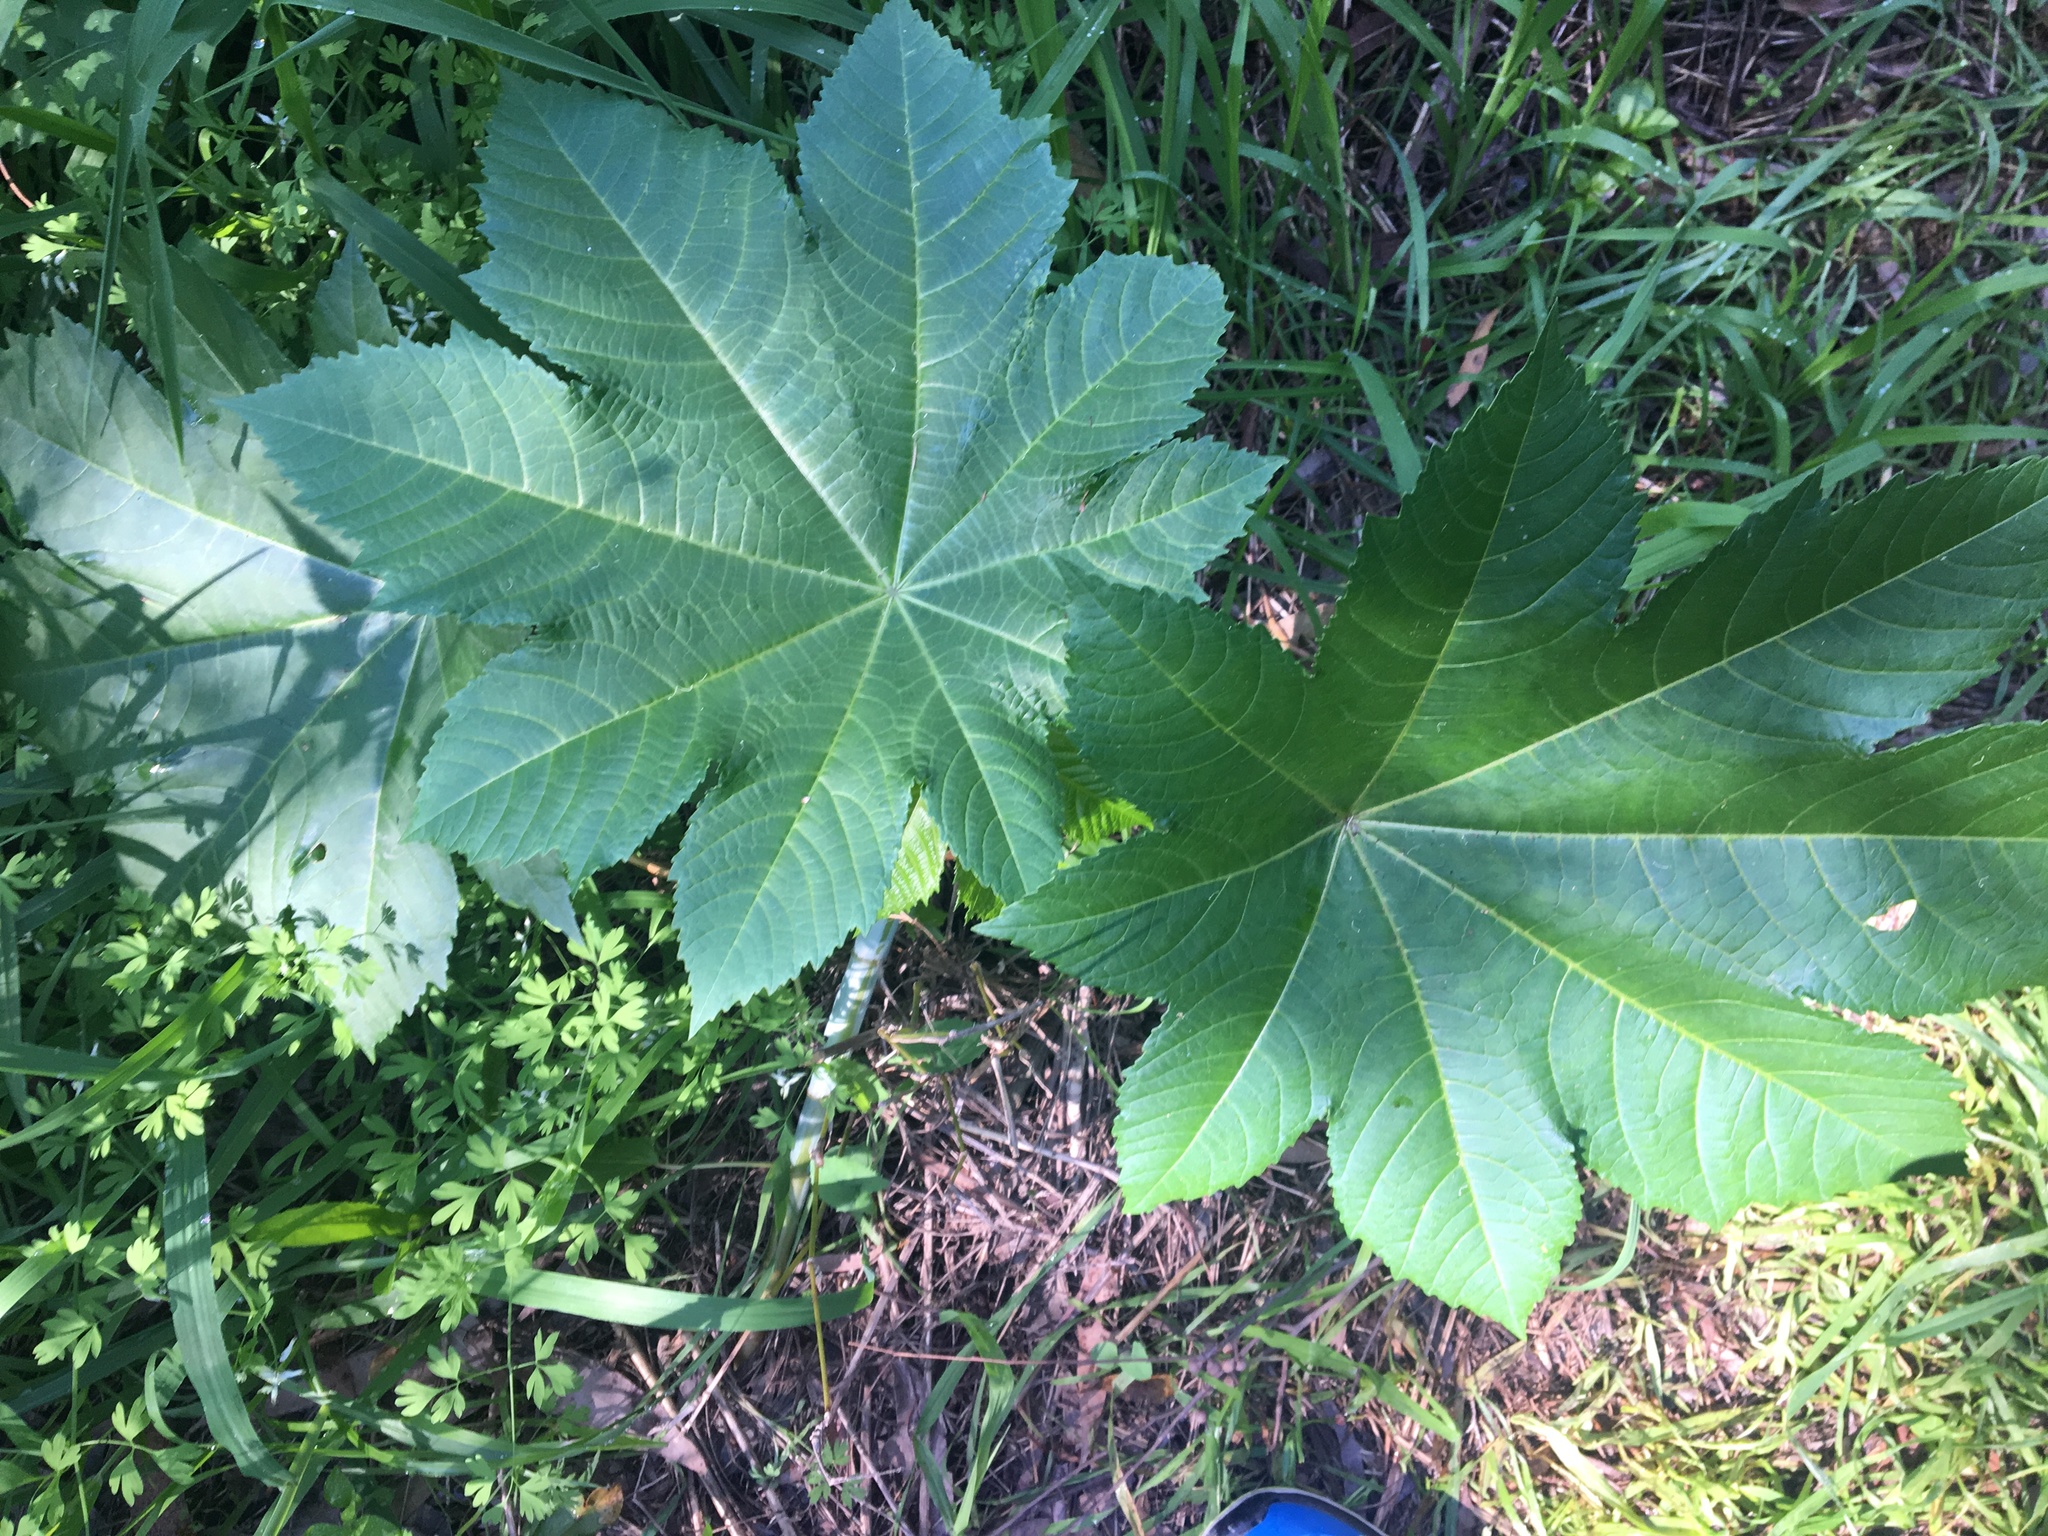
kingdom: Plantae
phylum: Tracheophyta
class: Magnoliopsida
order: Malpighiales
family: Euphorbiaceae
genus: Ricinus
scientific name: Ricinus communis
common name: Castor-oil-plant
